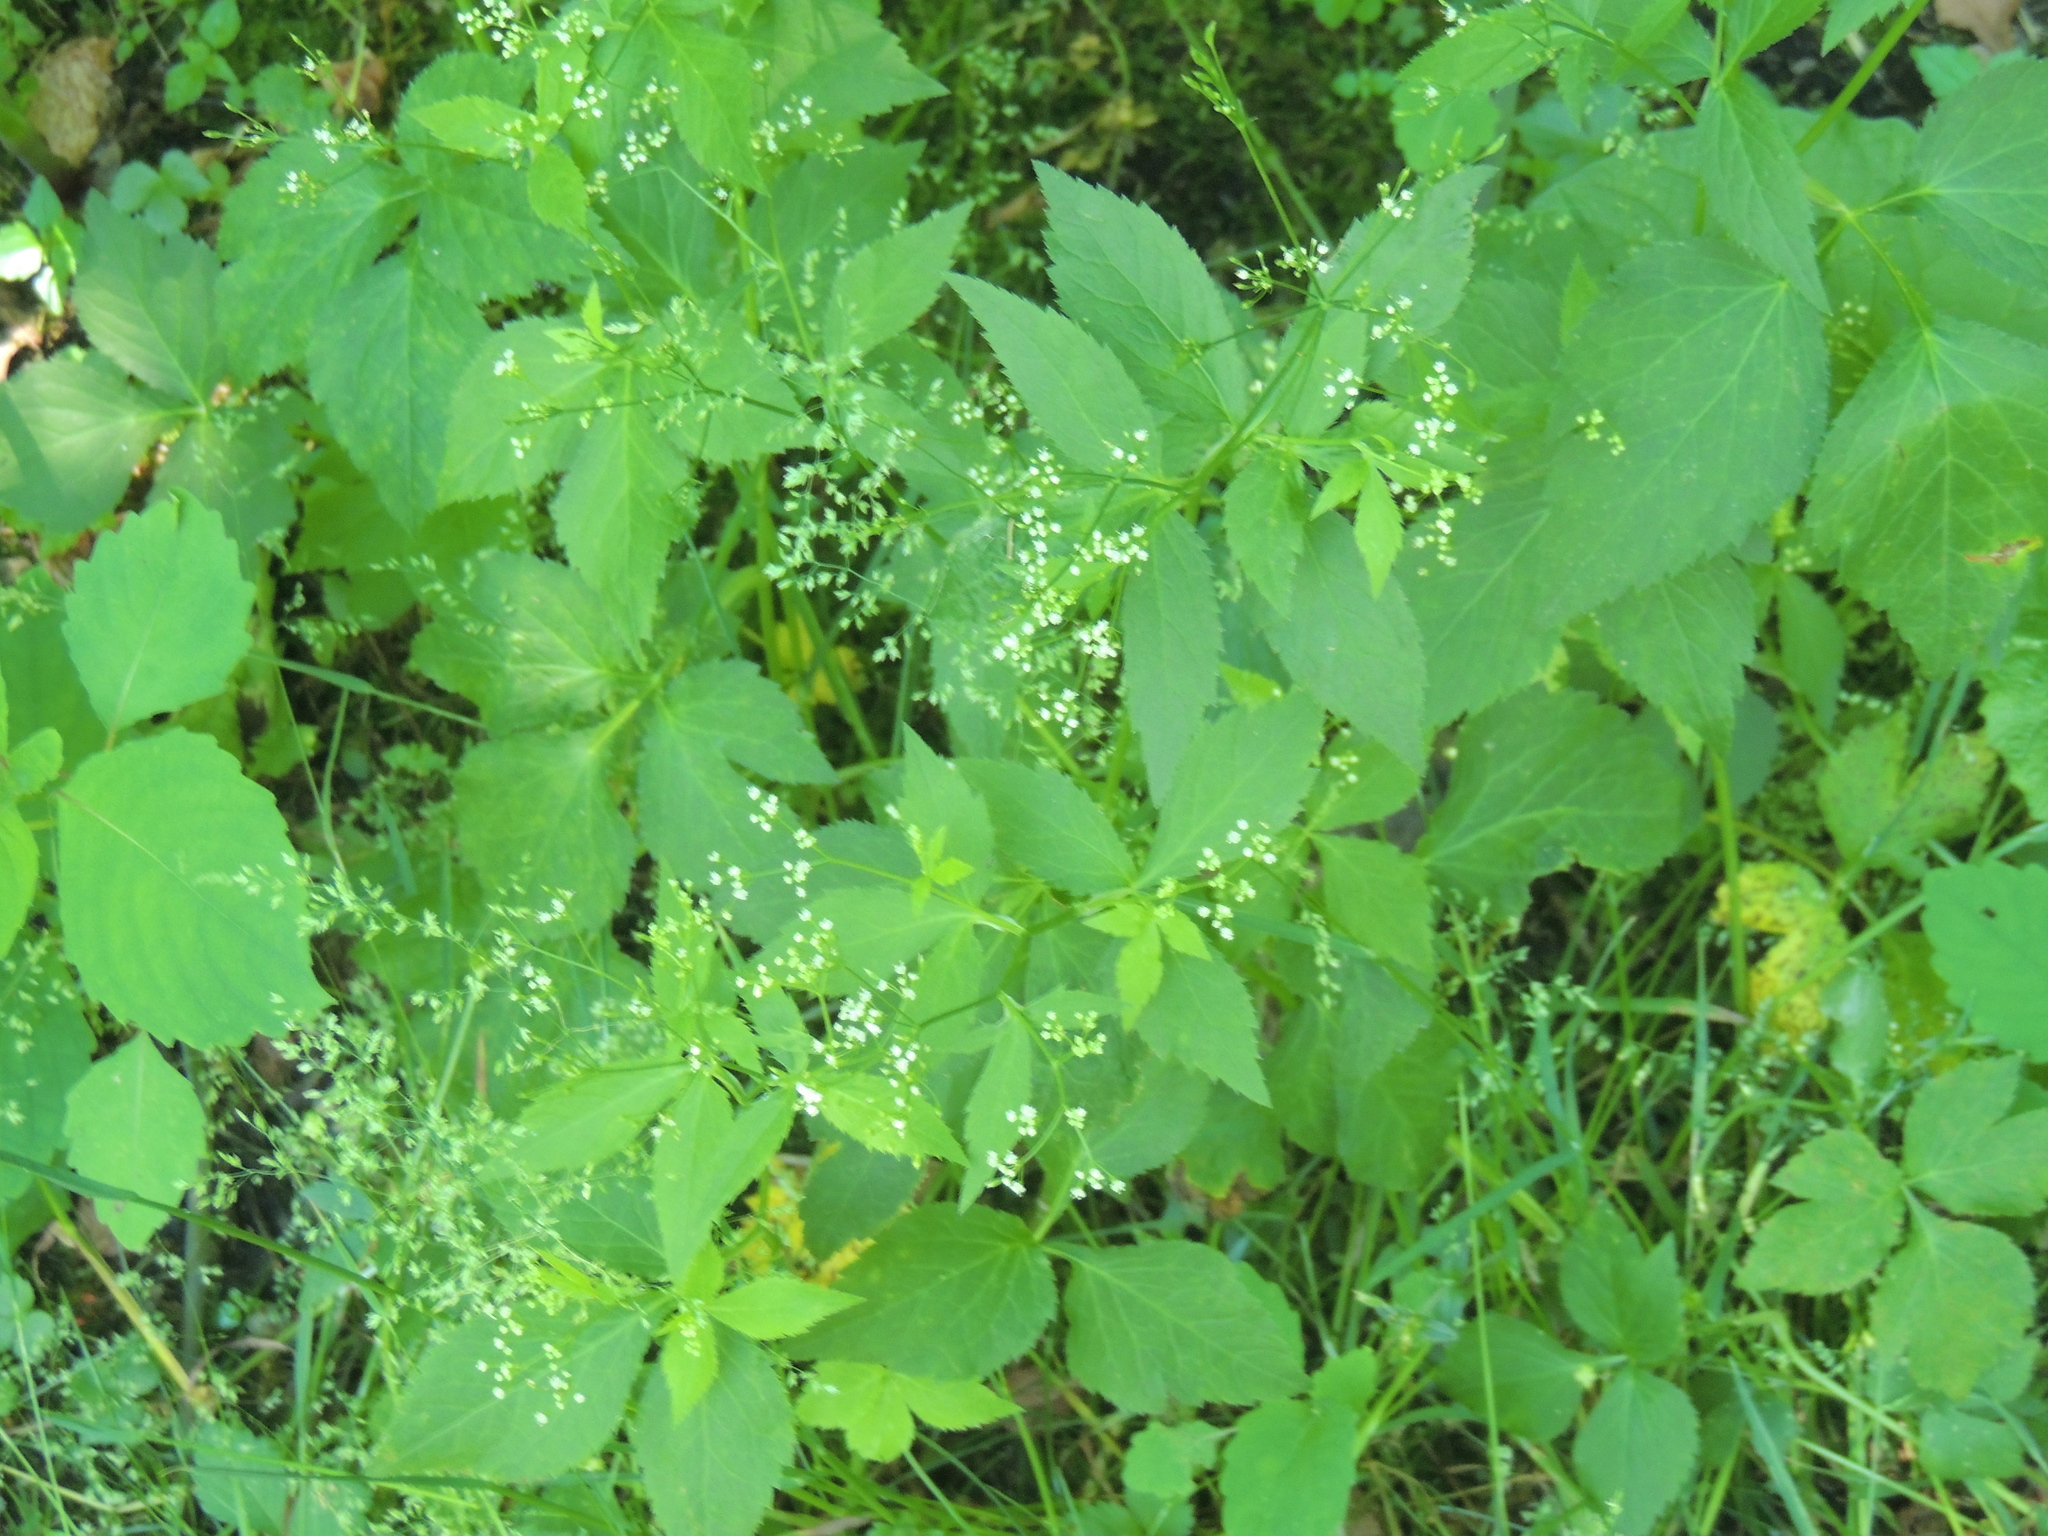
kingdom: Plantae
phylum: Tracheophyta
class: Magnoliopsida
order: Apiales
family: Apiaceae
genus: Cryptotaenia
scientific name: Cryptotaenia canadensis
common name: Honewort
